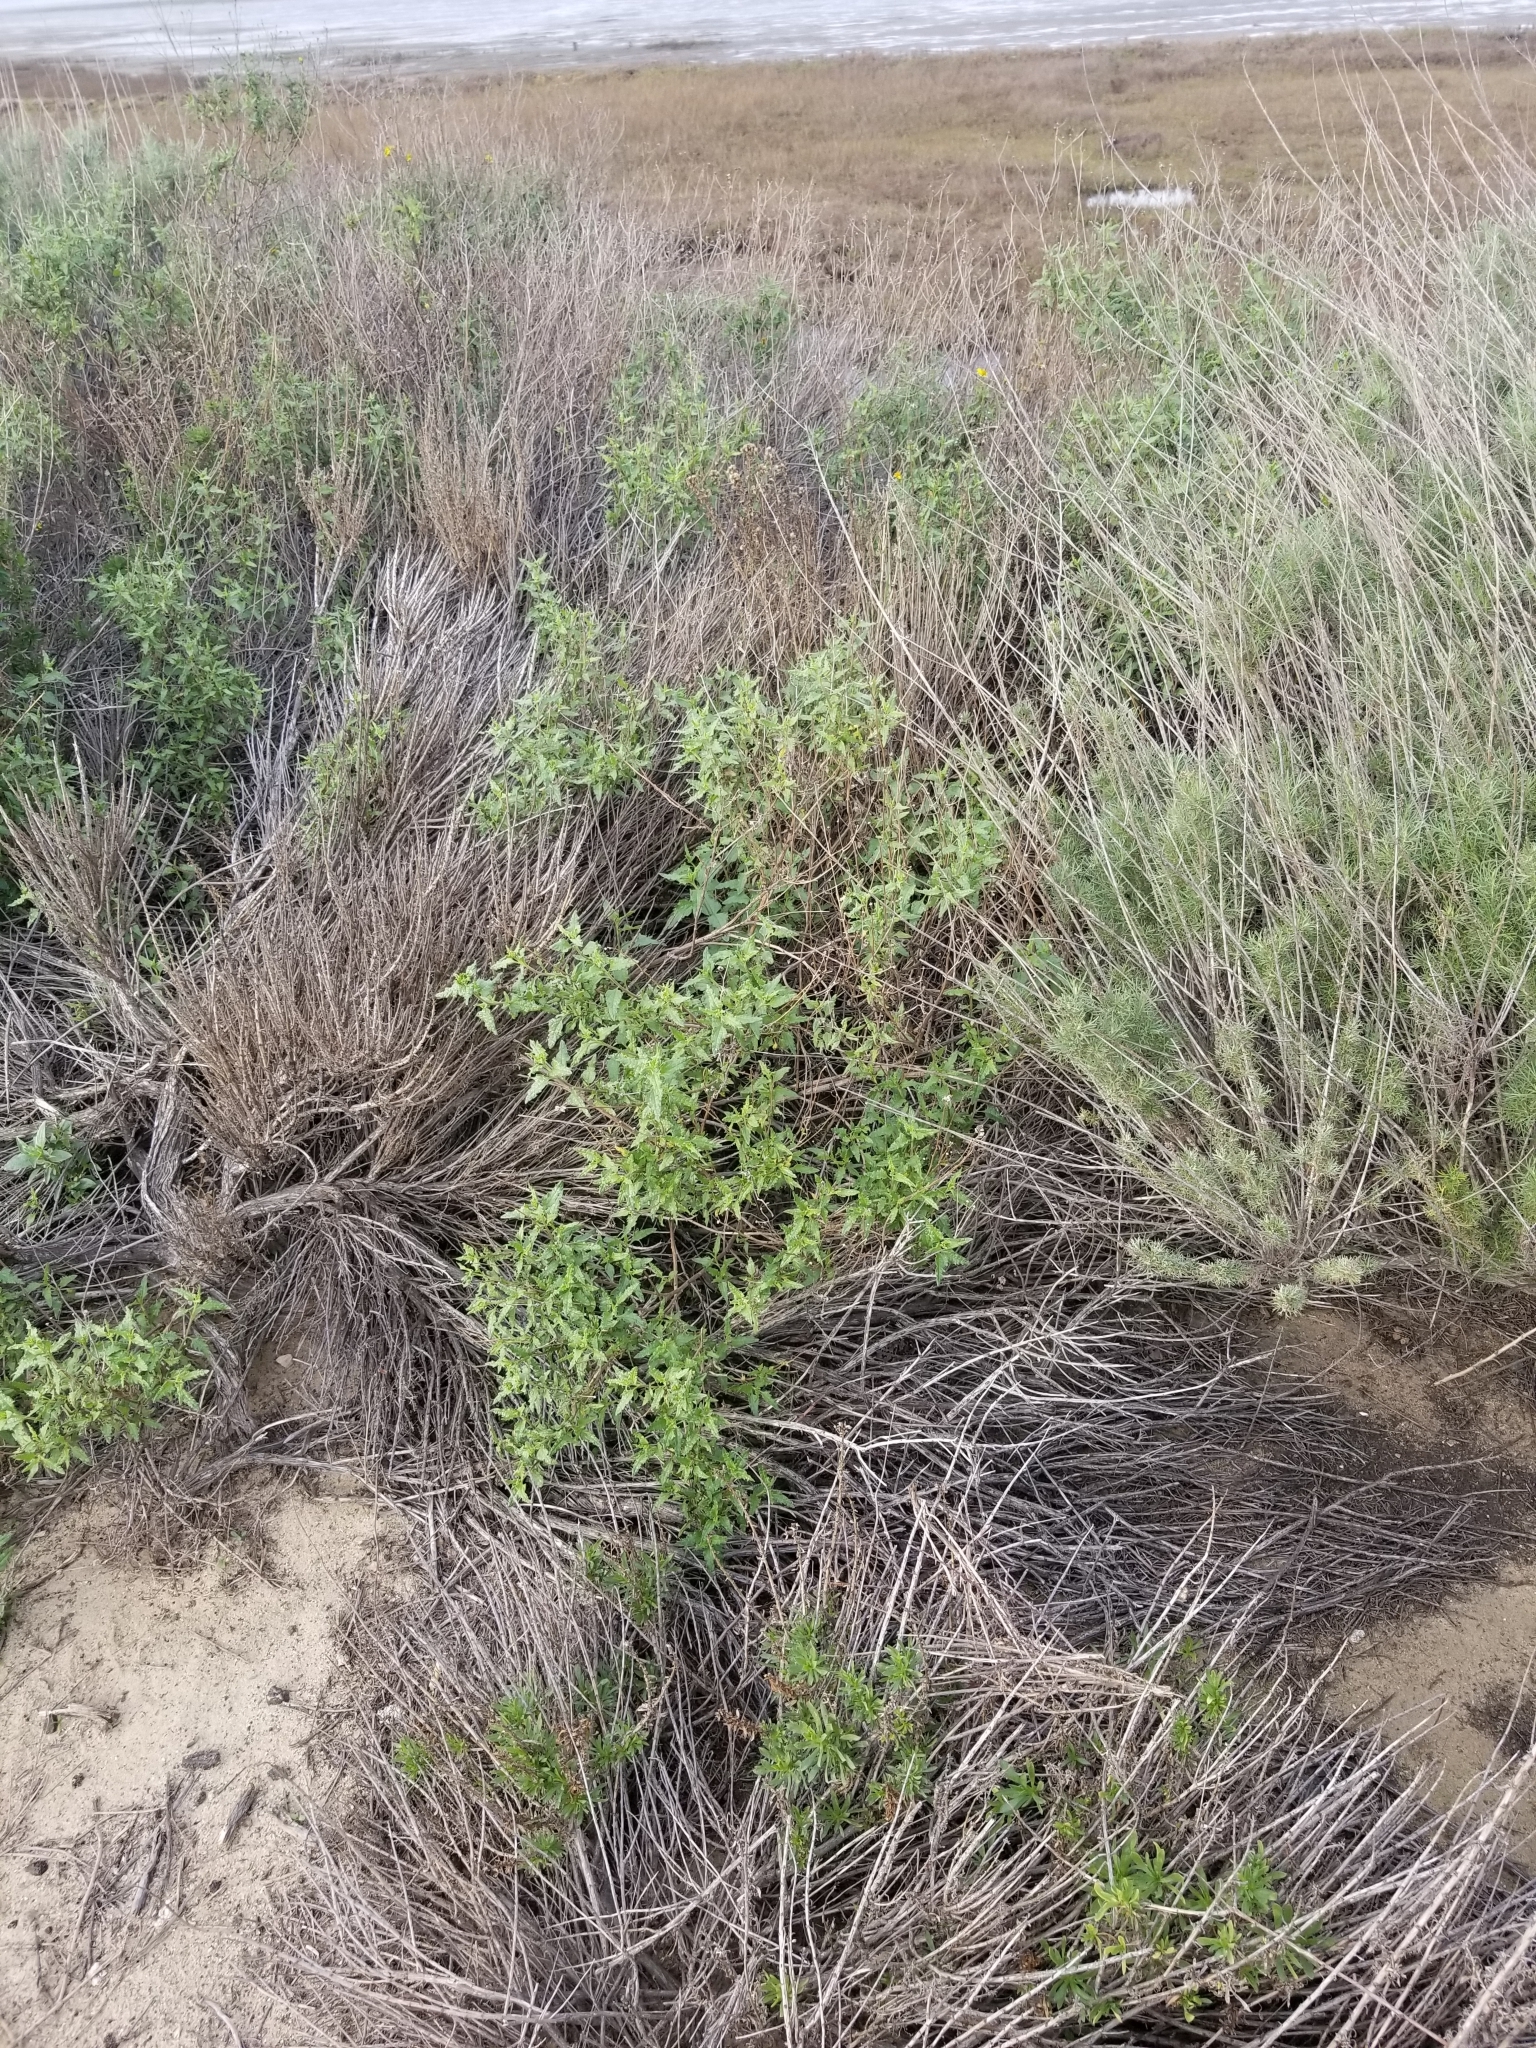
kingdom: Plantae
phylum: Tracheophyta
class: Magnoliopsida
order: Asterales
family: Asteraceae
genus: Bahiopsis
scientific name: Bahiopsis laciniata
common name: San diego county viguiera
